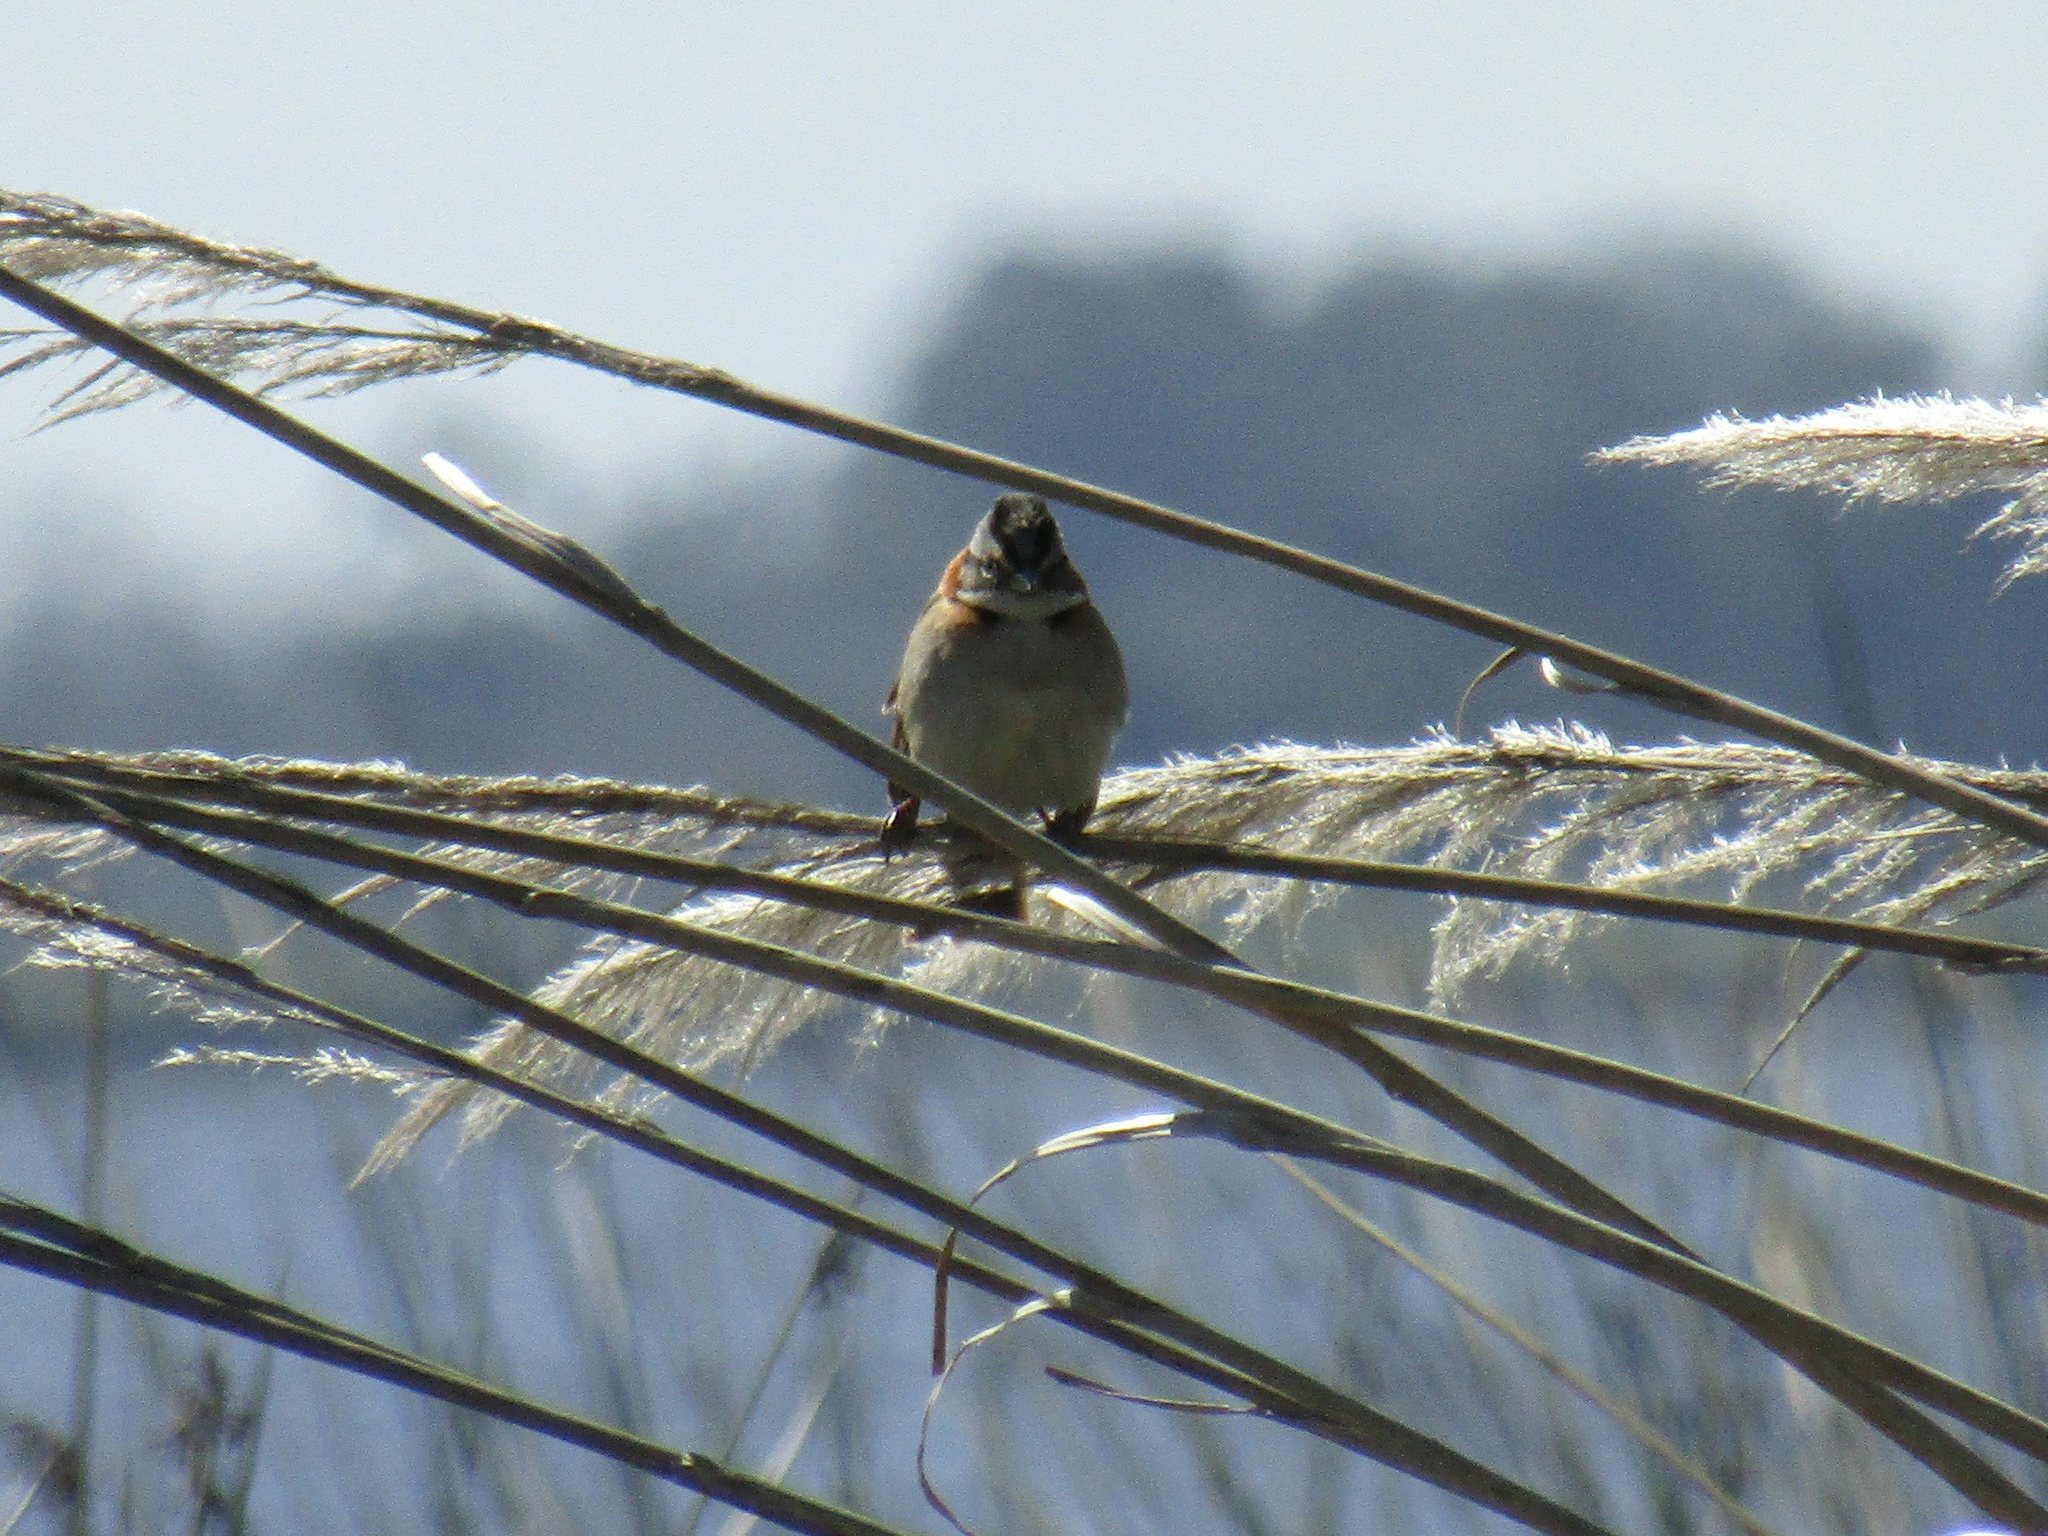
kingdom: Animalia
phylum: Chordata
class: Aves
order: Passeriformes
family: Passerellidae
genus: Zonotrichia
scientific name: Zonotrichia capensis
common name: Rufous-collared sparrow
